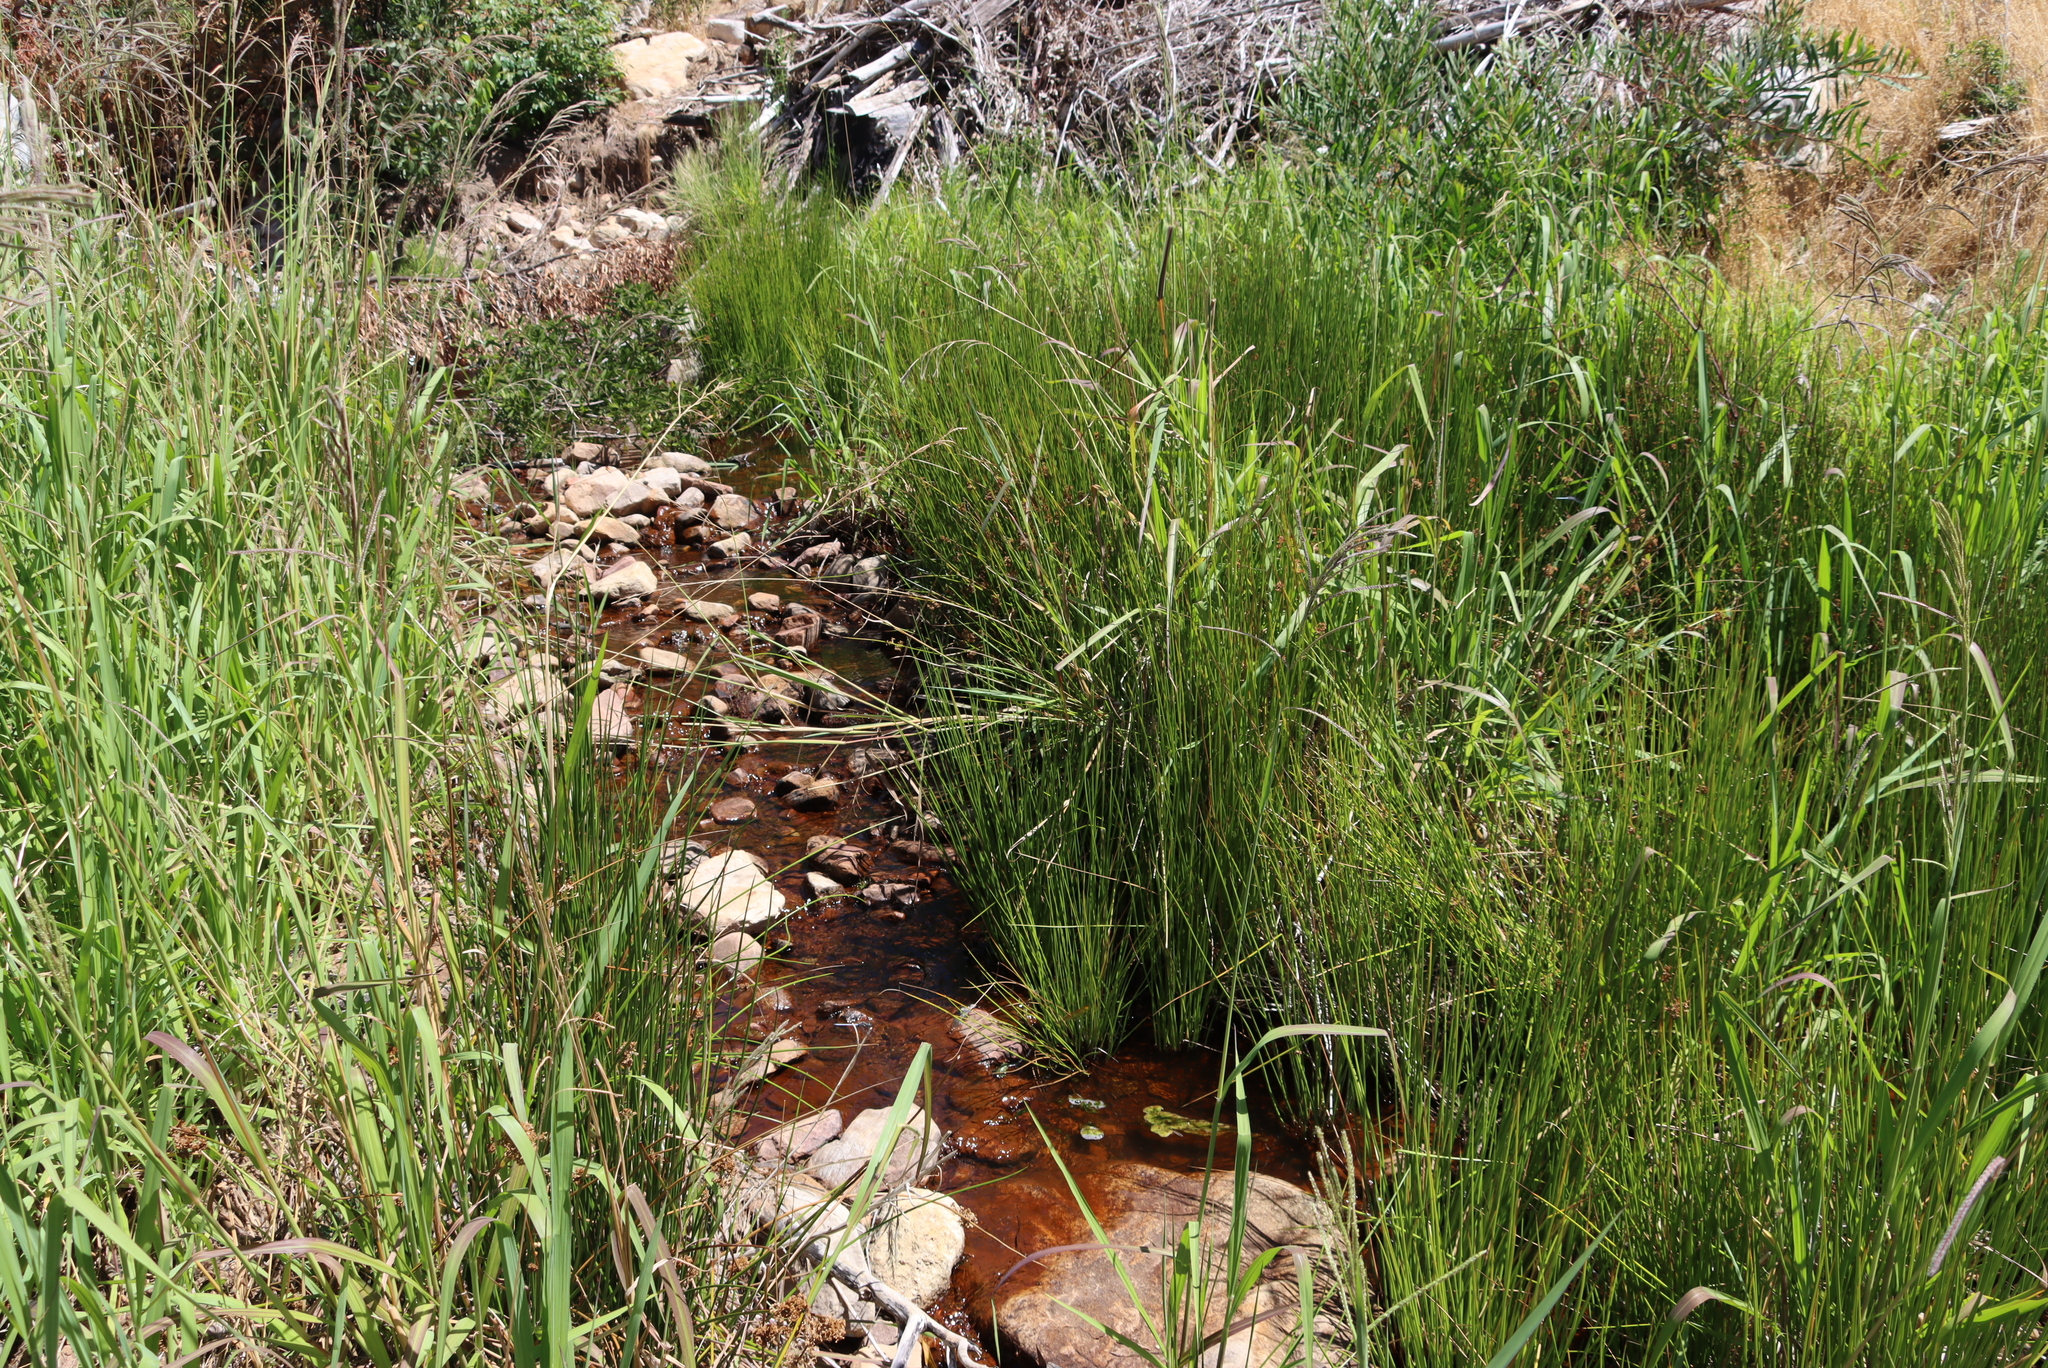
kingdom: Plantae
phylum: Tracheophyta
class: Liliopsida
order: Poales
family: Poaceae
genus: Paspalum
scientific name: Paspalum urvillei
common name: Vasey's grass
